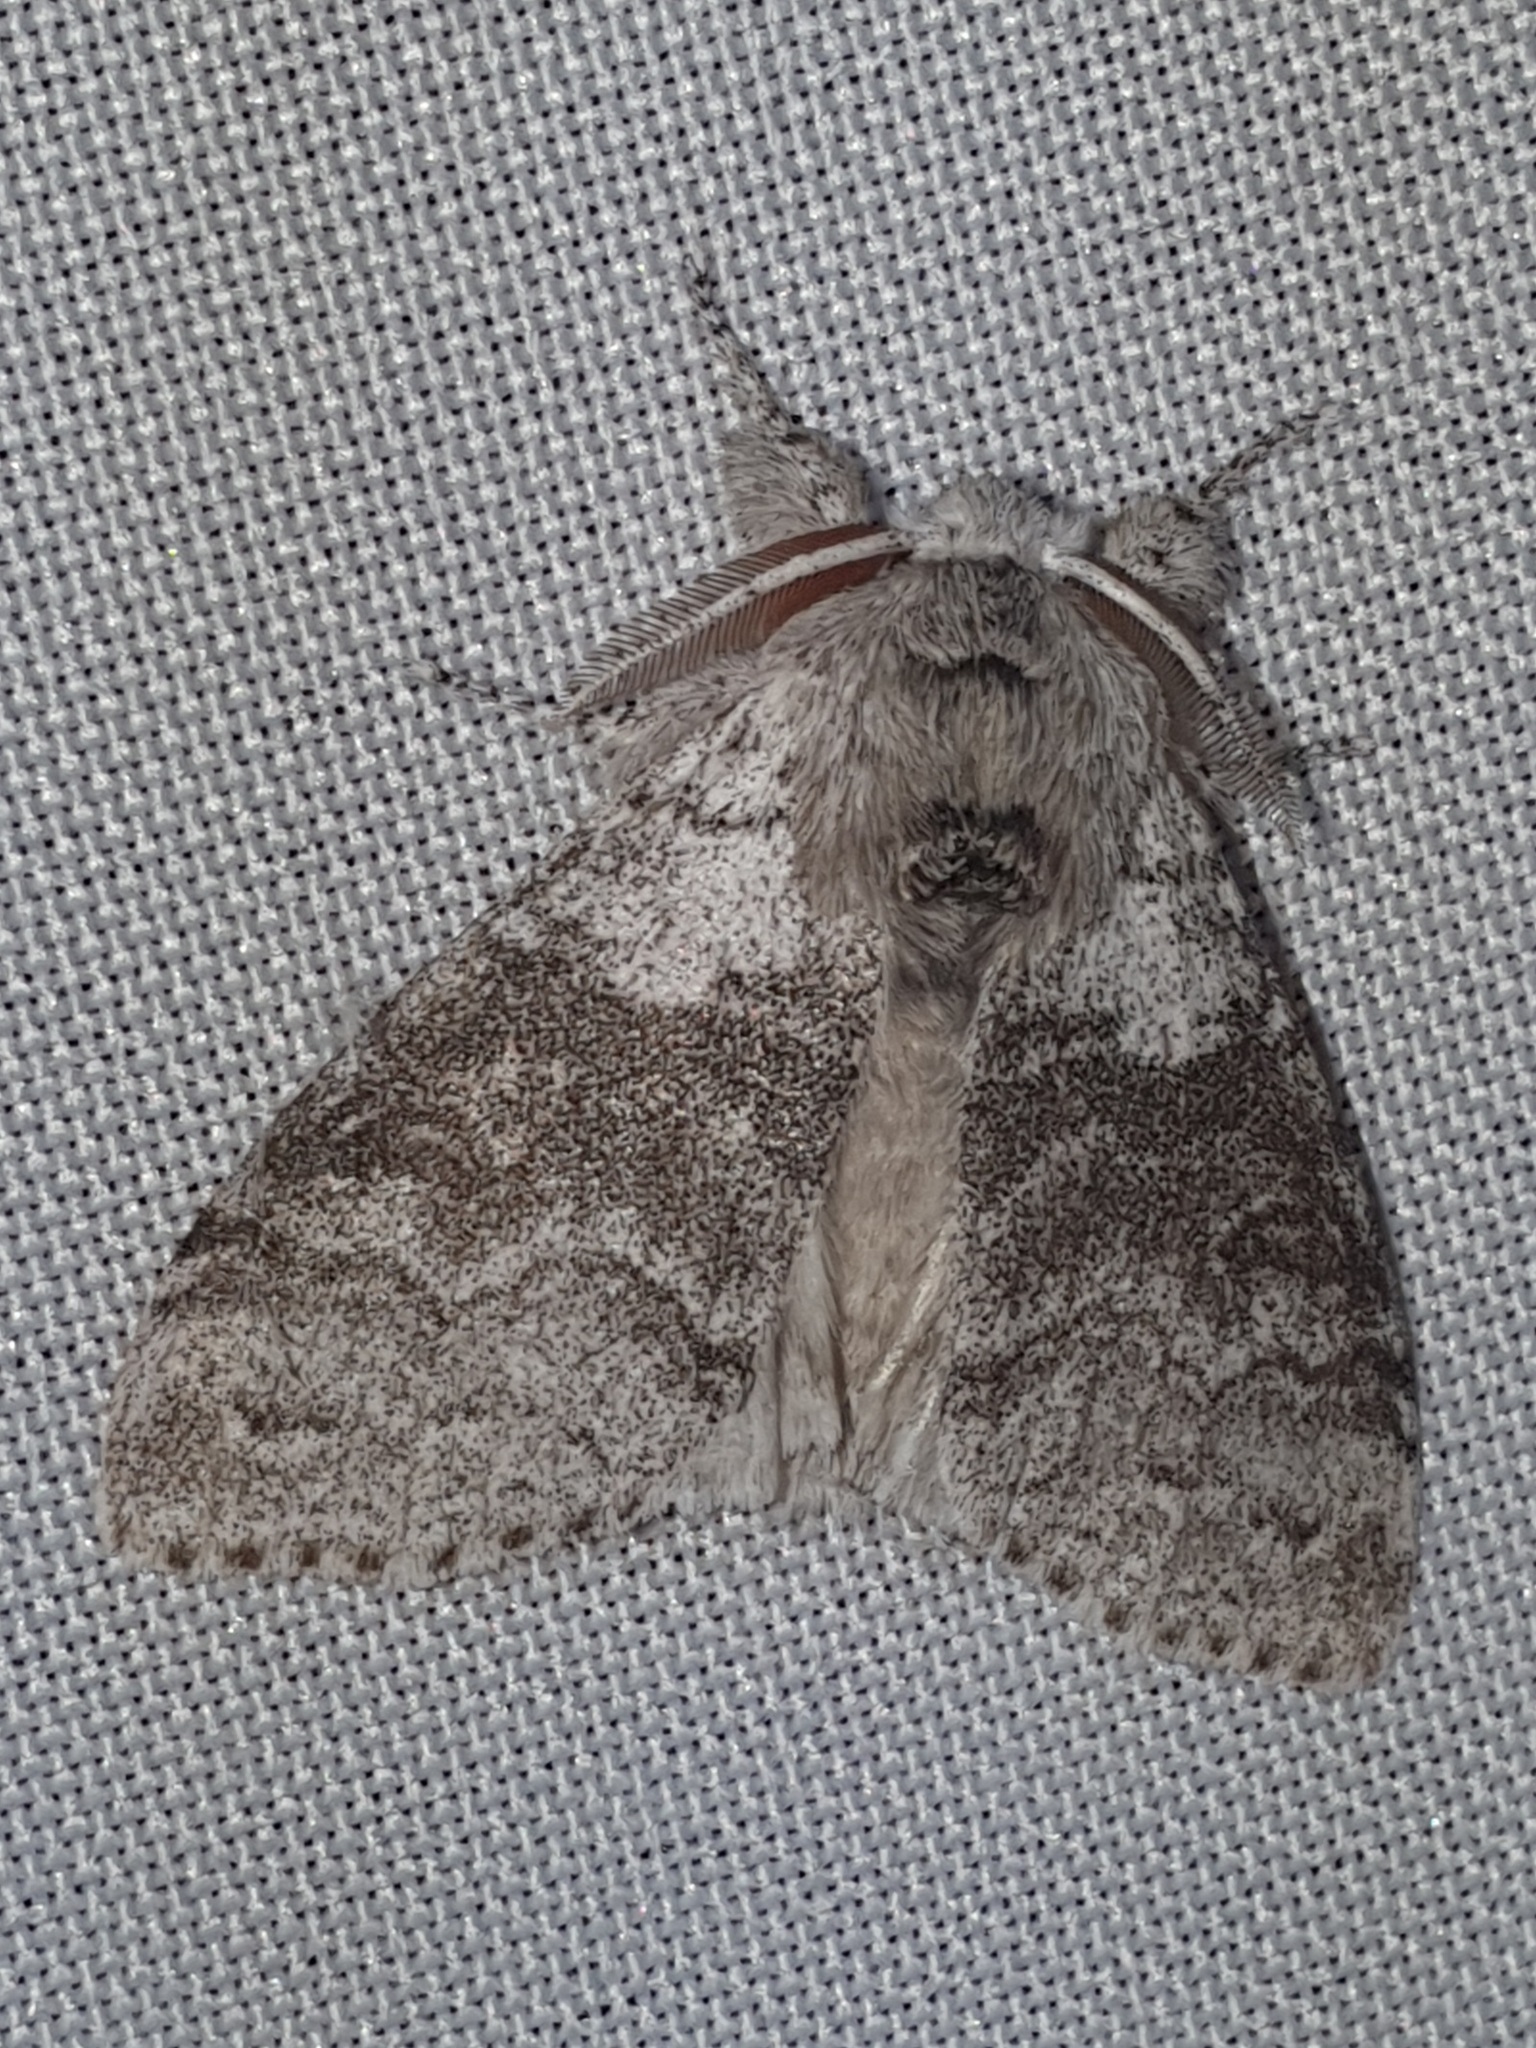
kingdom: Animalia
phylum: Arthropoda
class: Insecta
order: Lepidoptera
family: Erebidae
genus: Calliteara
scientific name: Calliteara pudibunda
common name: Pale tussock
